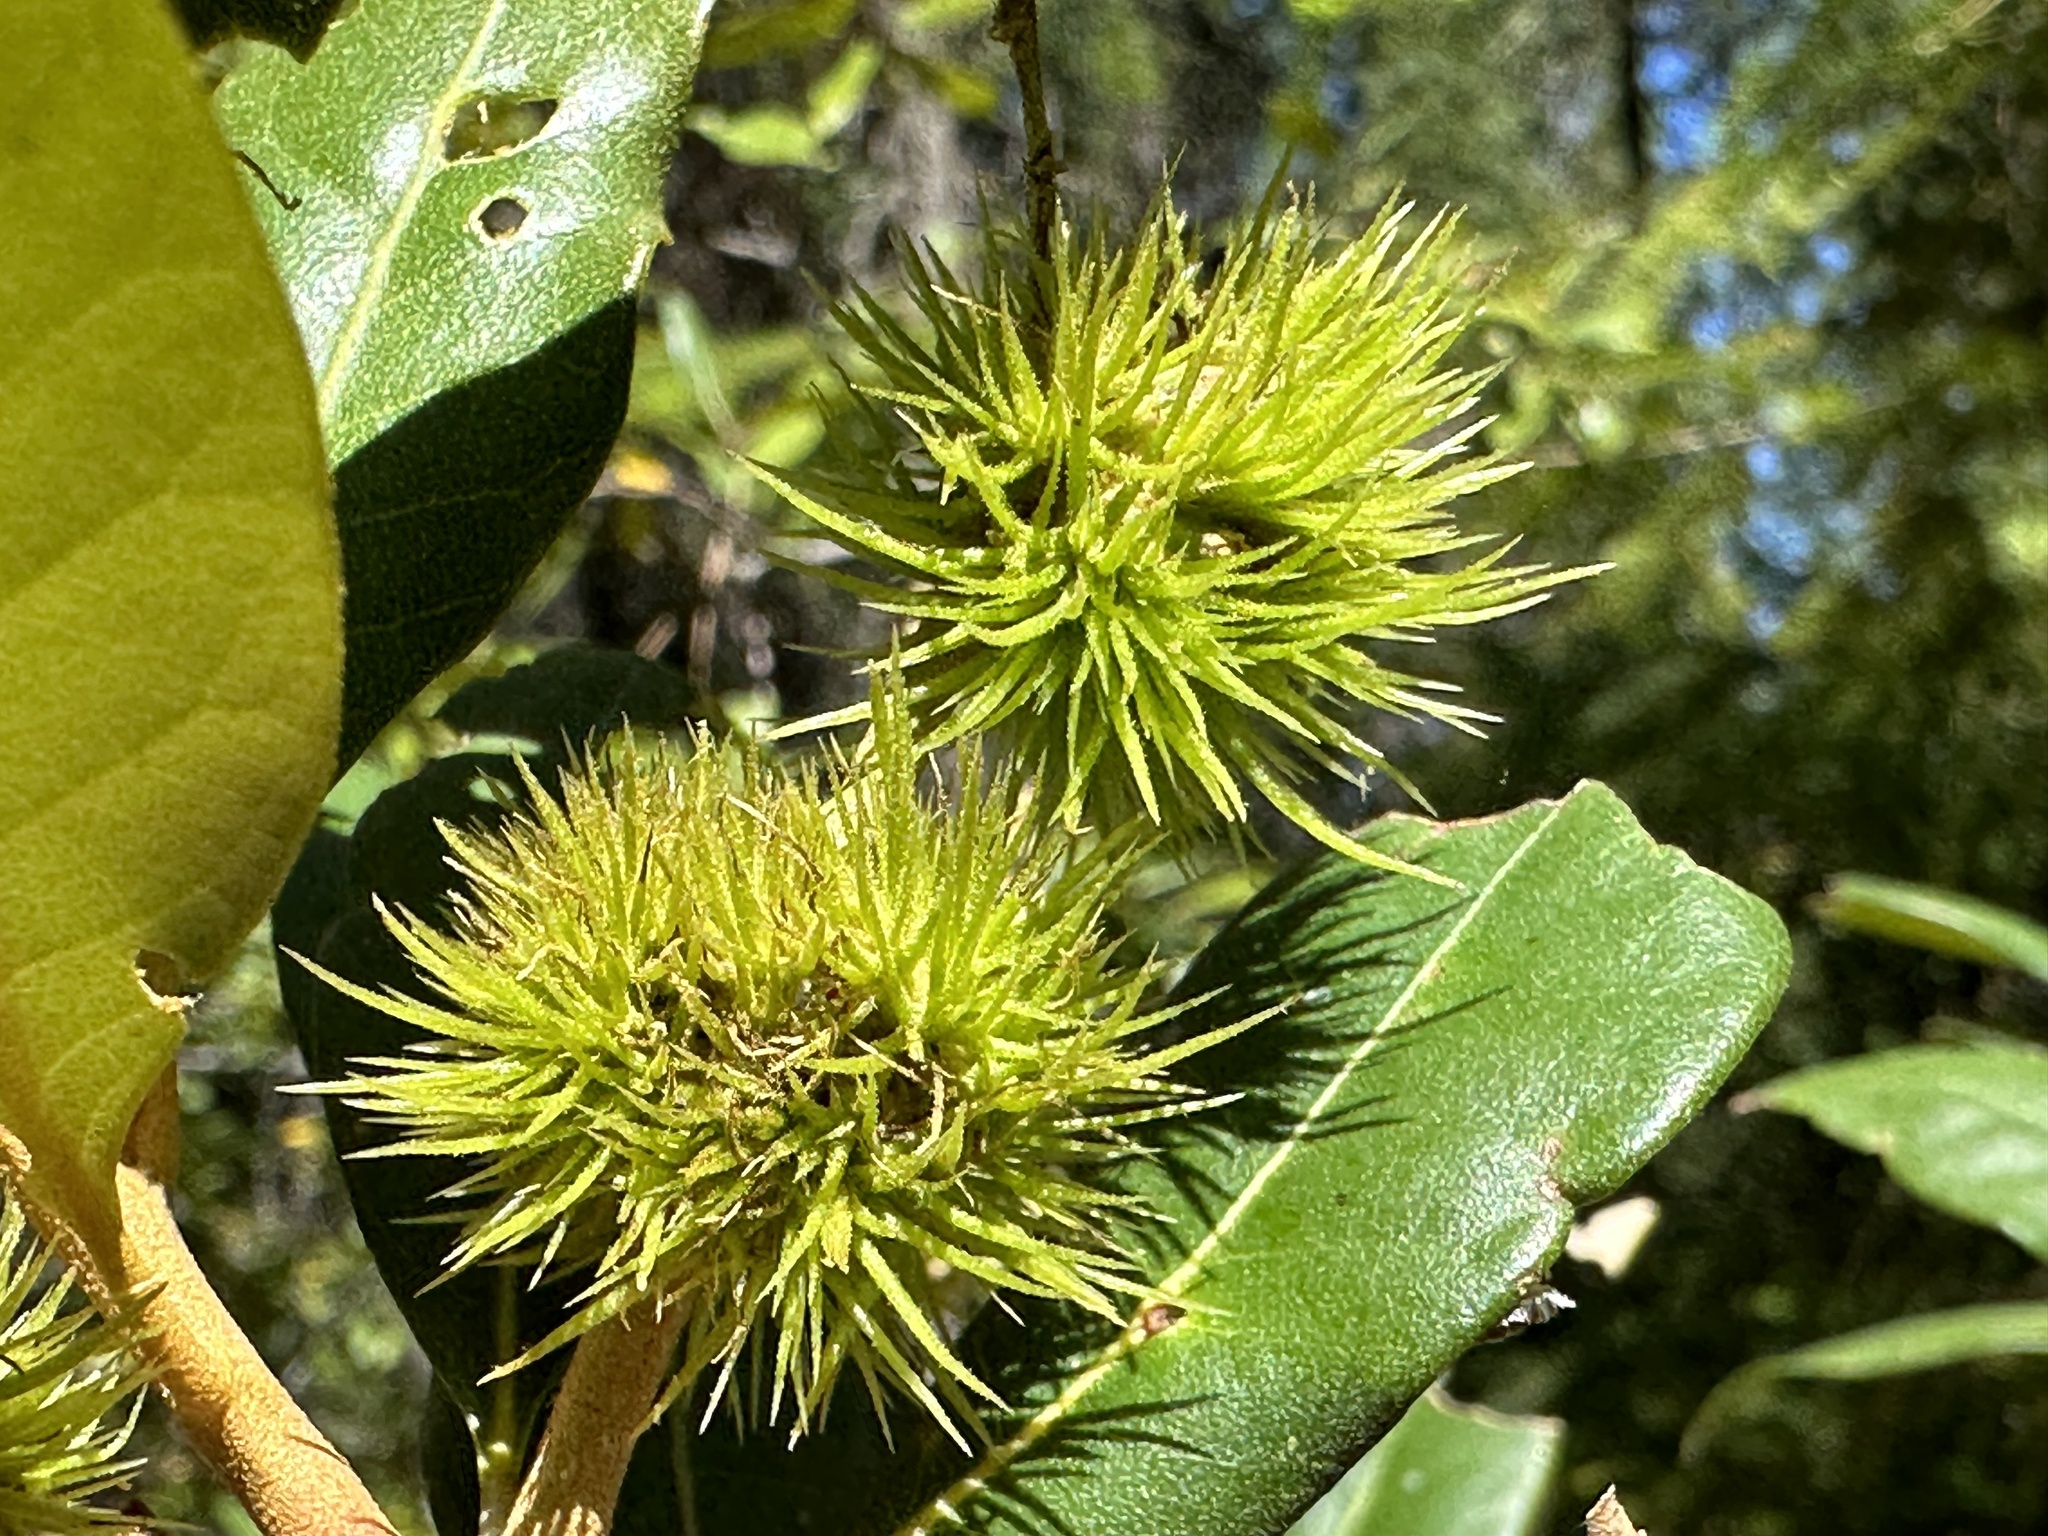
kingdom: Plantae
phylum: Tracheophyta
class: Magnoliopsida
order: Fagales
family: Fagaceae
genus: Chrysolepis
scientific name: Chrysolepis chrysophylla
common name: Giant chinquapin
